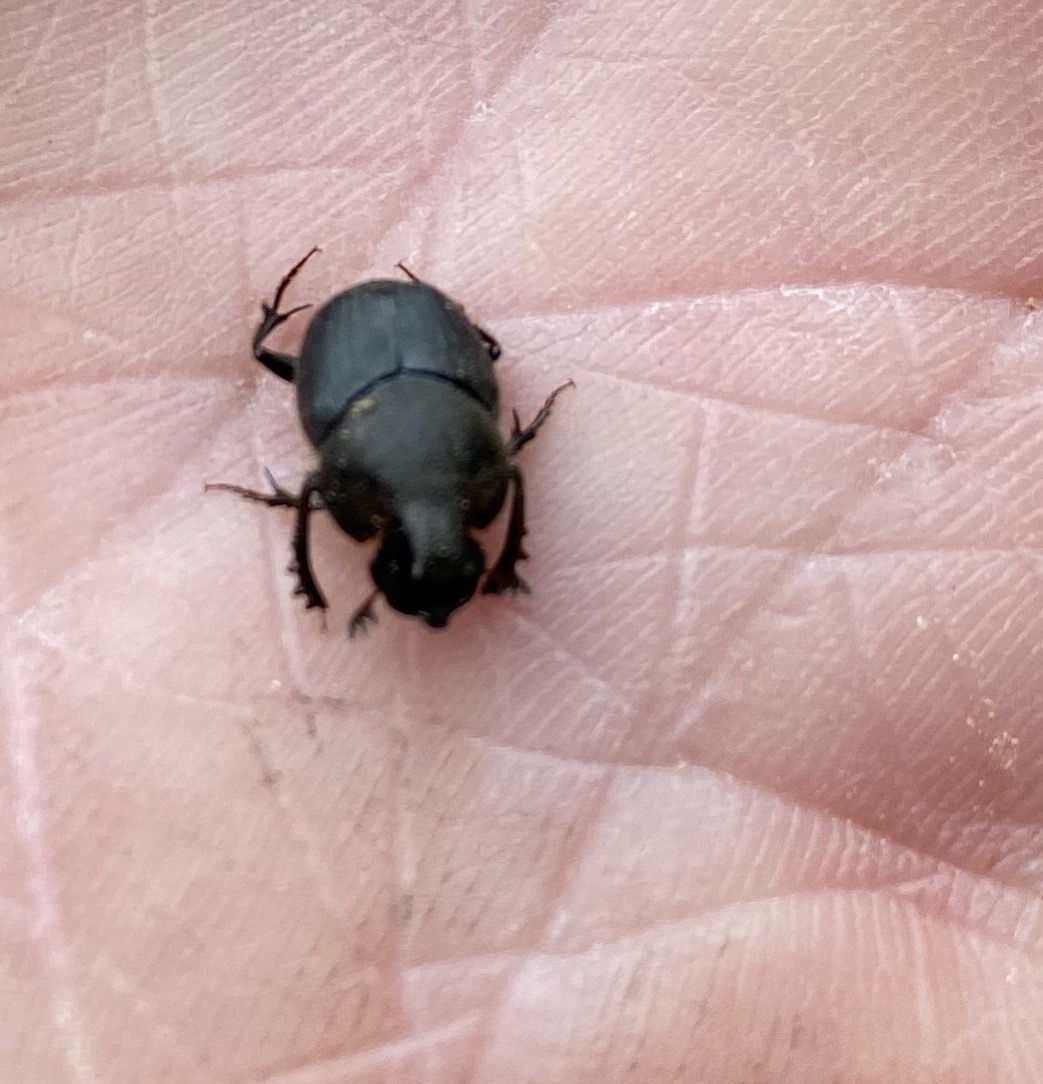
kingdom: Animalia
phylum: Arthropoda
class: Insecta
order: Coleoptera
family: Scarabaeidae
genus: Onthophagus
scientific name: Onthophagus hecate
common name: Scooped scarab
